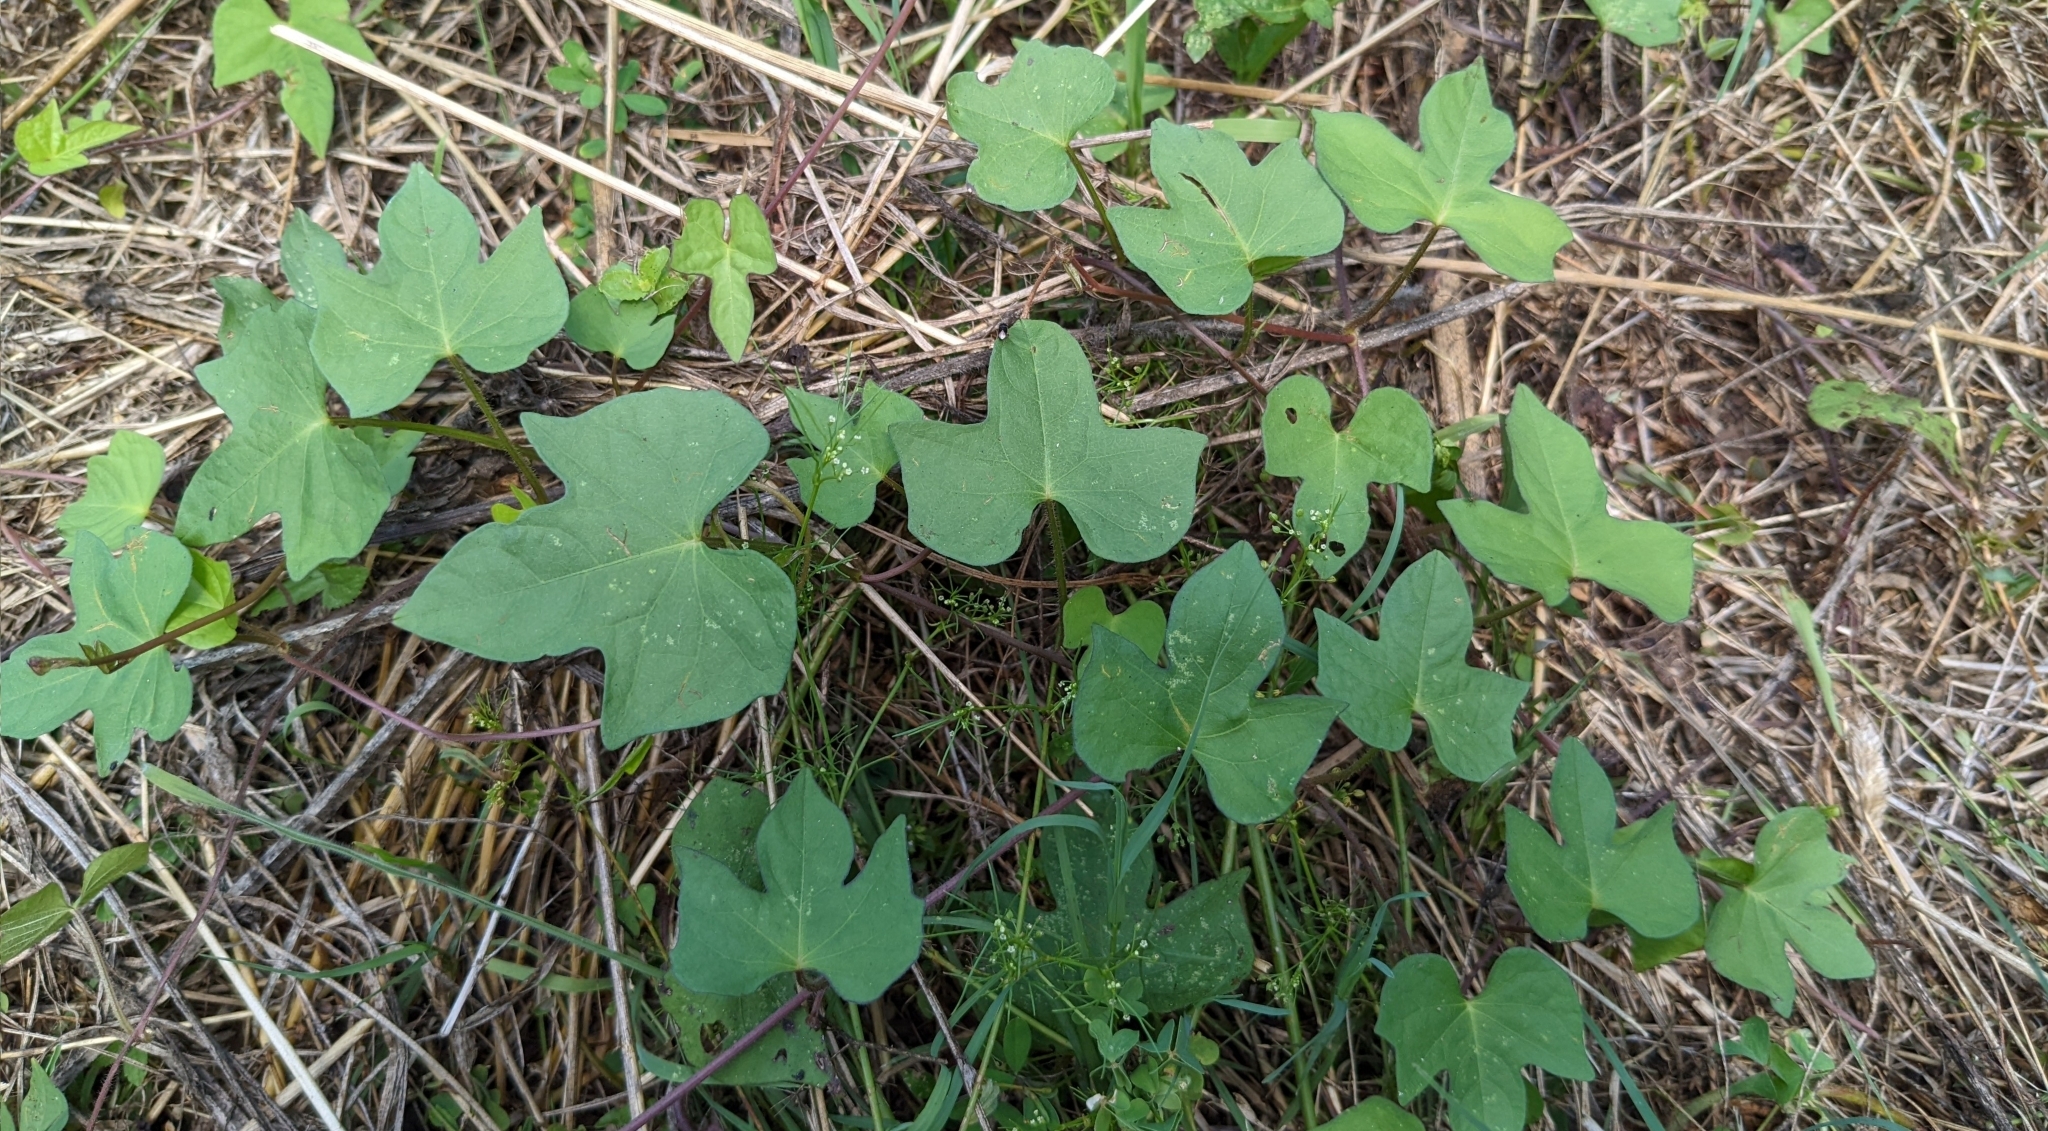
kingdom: Plantae
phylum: Tracheophyta
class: Magnoliopsida
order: Solanales
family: Convolvulaceae
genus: Ipomoea
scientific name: Ipomoea cordatotriloba
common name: Cotton morning glory
